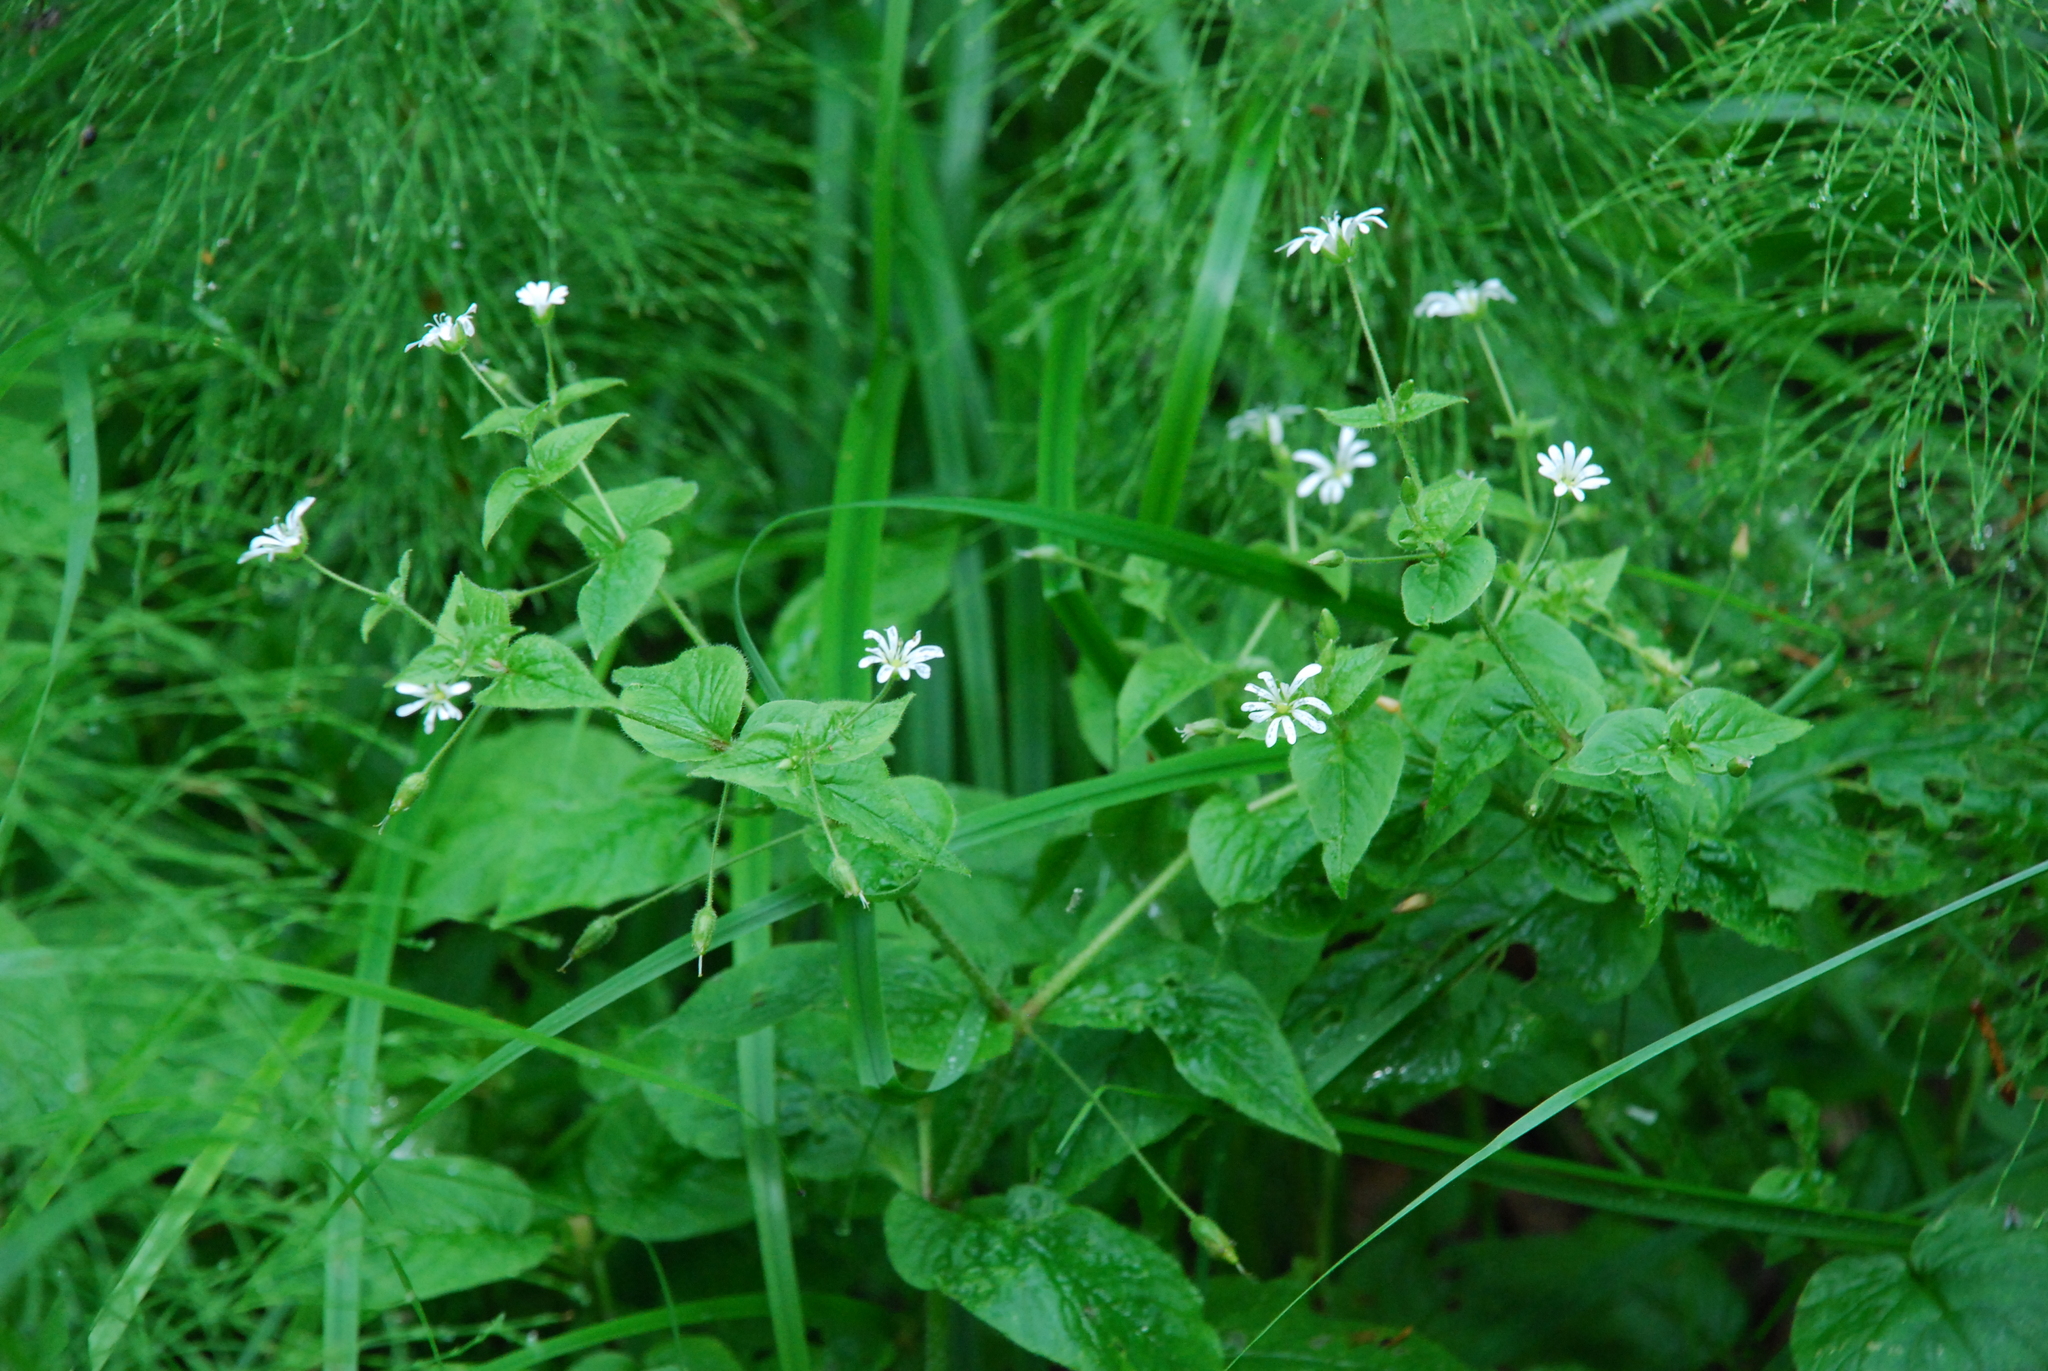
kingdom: Plantae
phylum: Tracheophyta
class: Magnoliopsida
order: Caryophyllales
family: Caryophyllaceae
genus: Stellaria
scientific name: Stellaria nemorum
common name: Wood stitchwort
